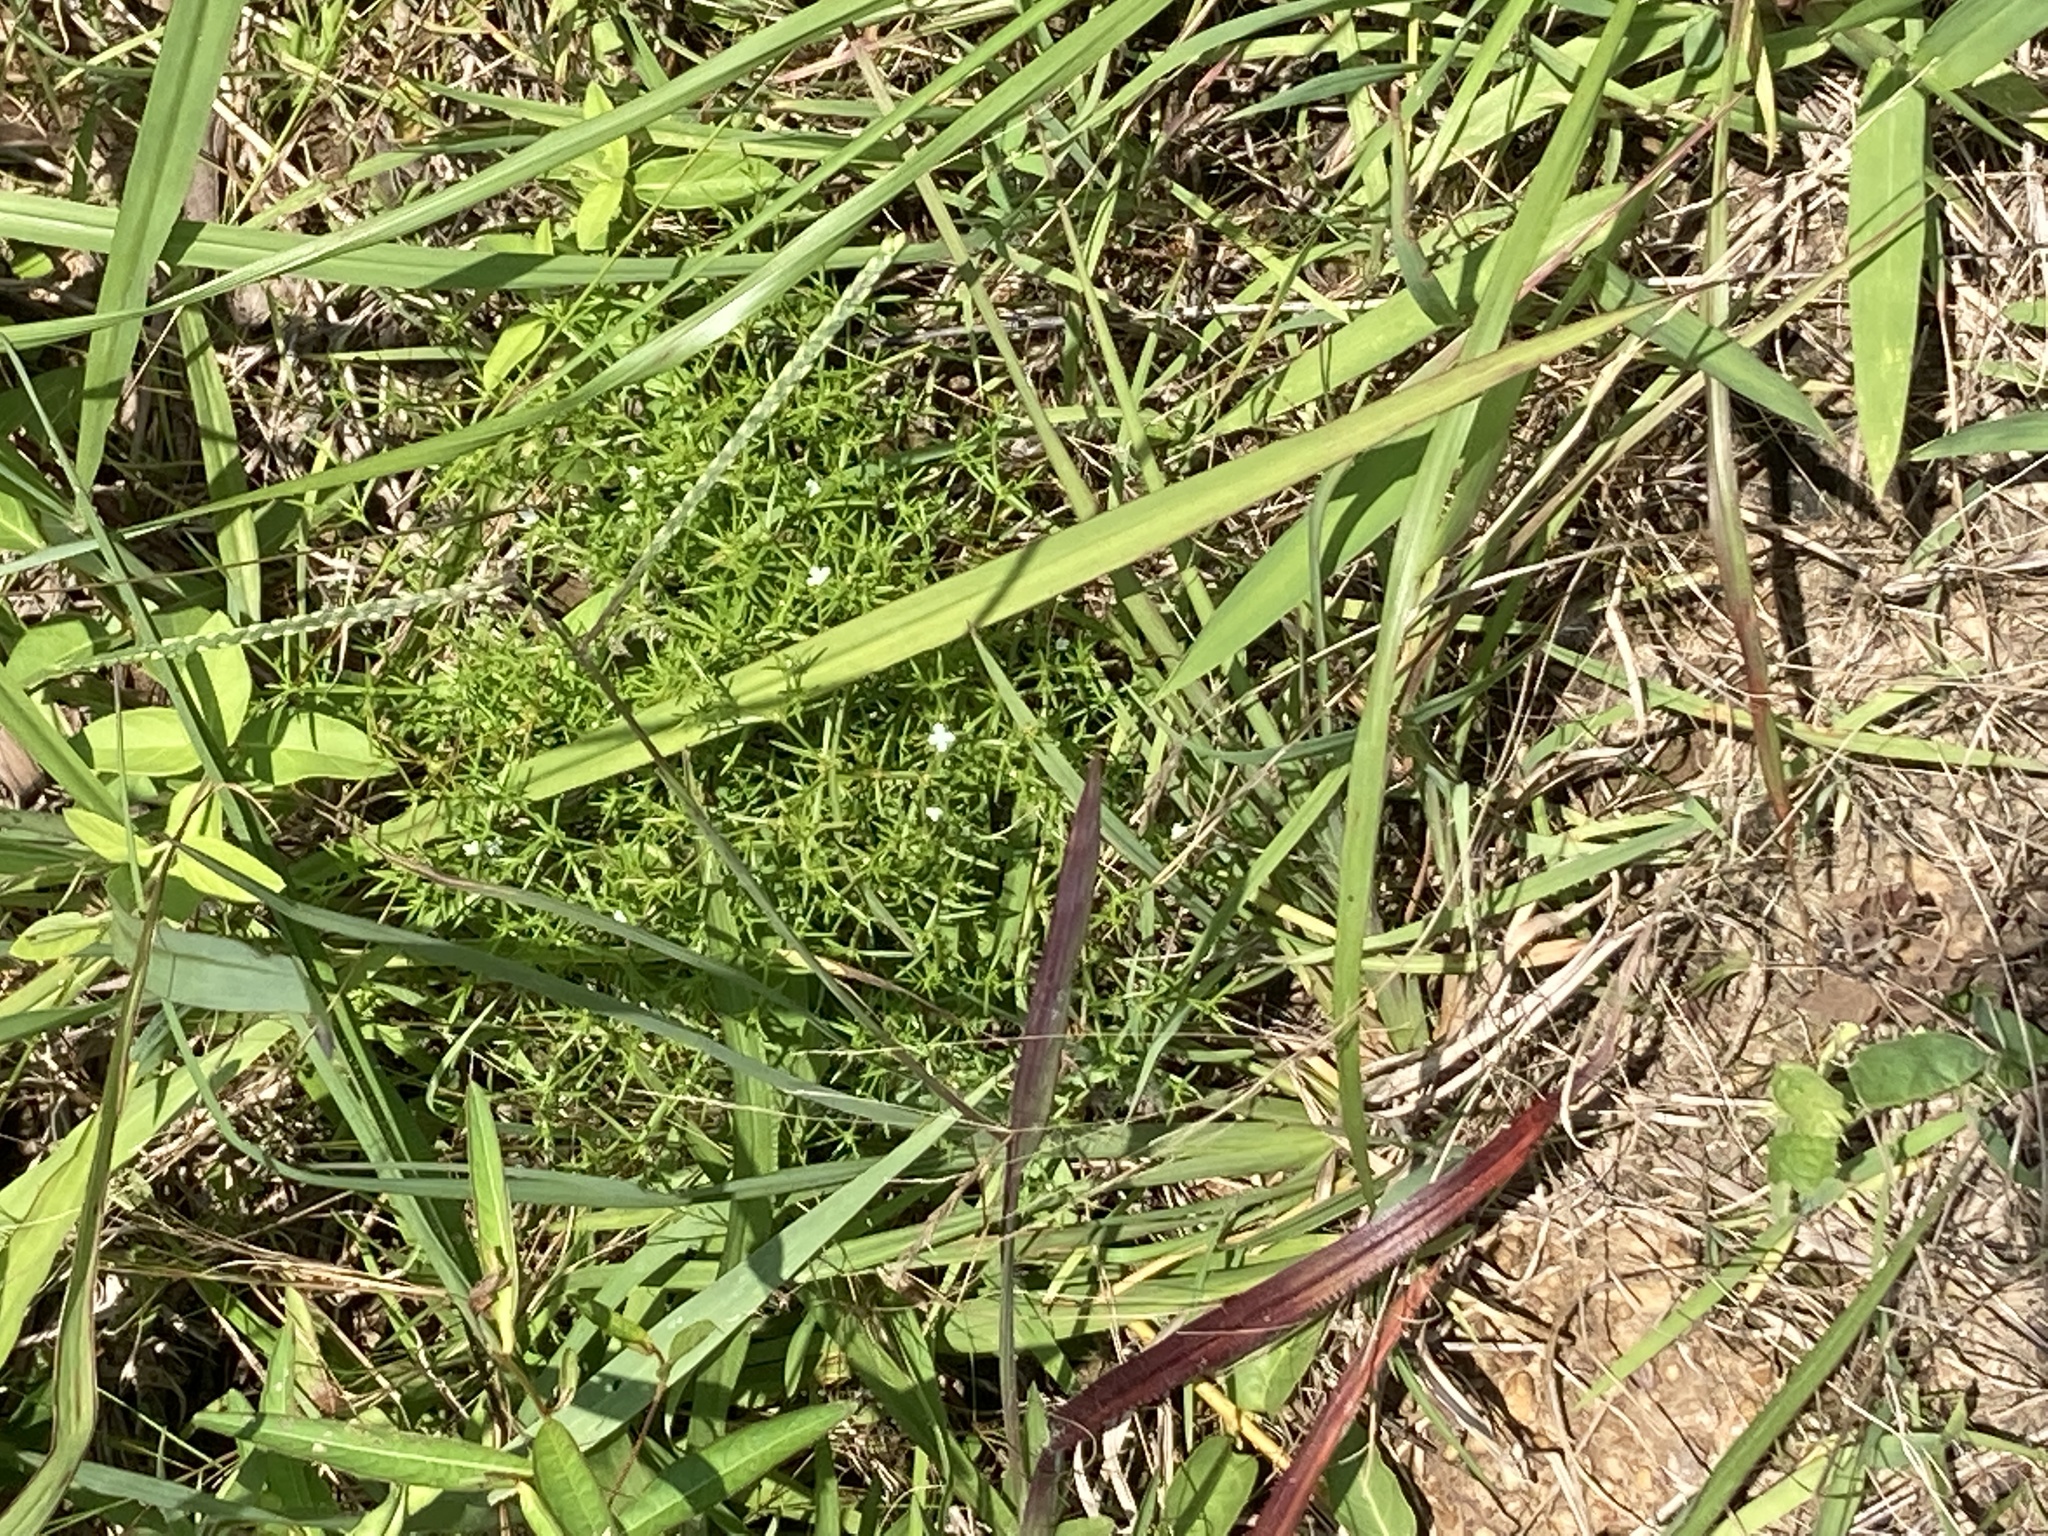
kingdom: Plantae
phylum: Tracheophyta
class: Magnoliopsida
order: Lamiales
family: Tetrachondraceae
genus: Polypremum
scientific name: Polypremum procumbens
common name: Juniper-leaf
